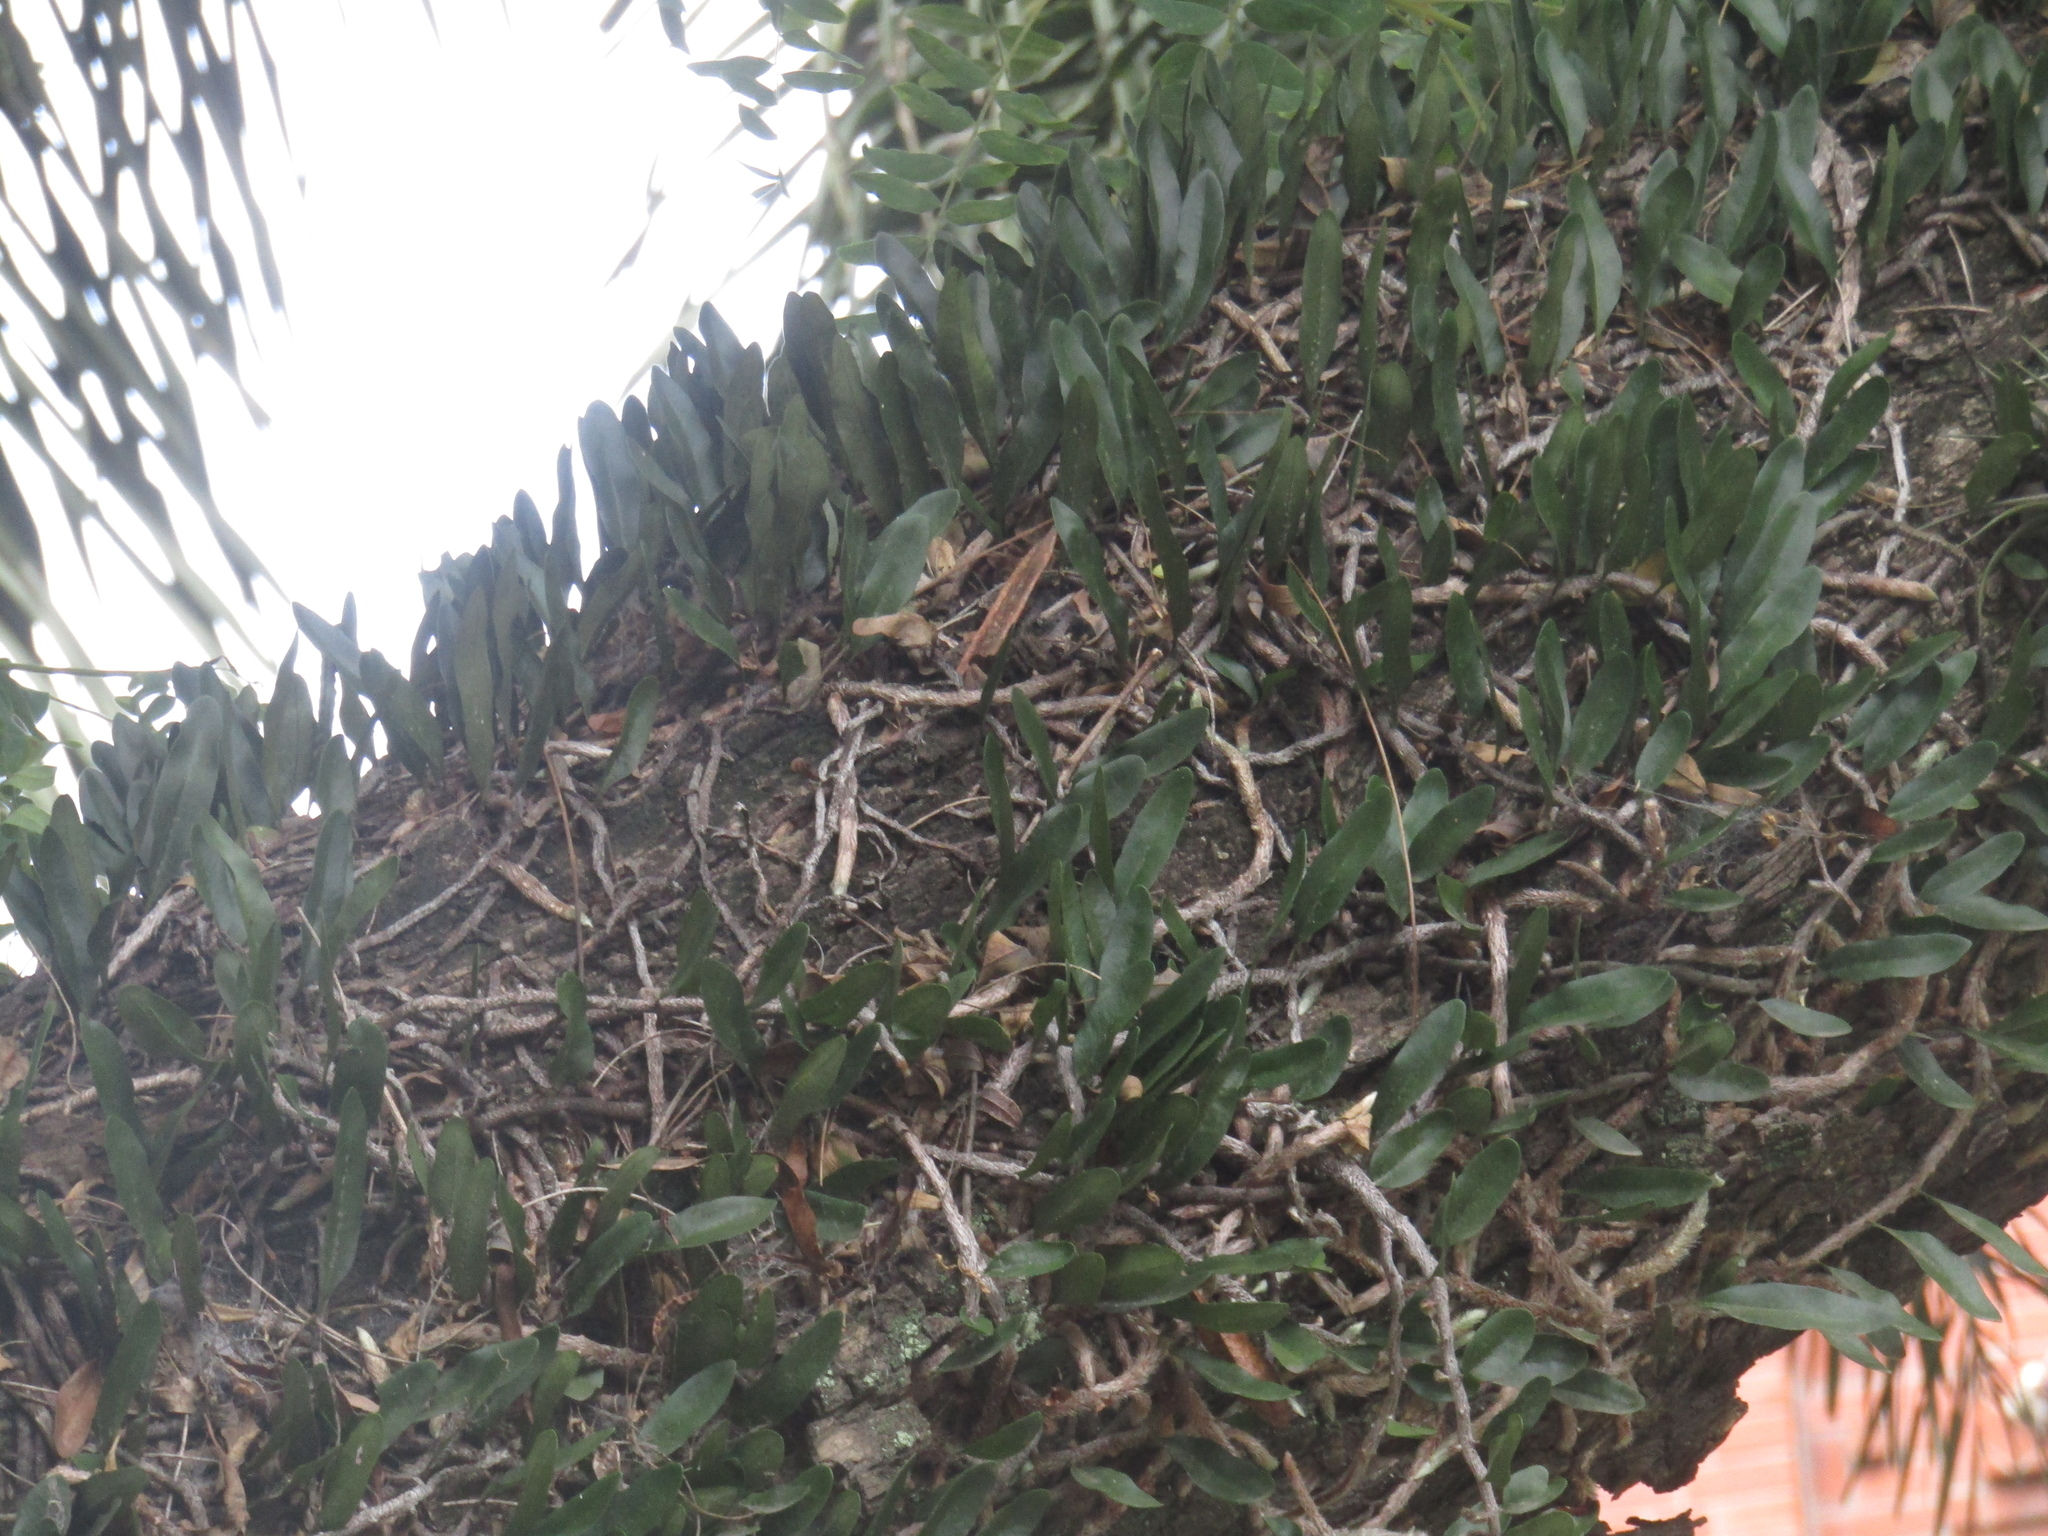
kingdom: Plantae
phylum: Tracheophyta
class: Polypodiopsida
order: Polypodiales
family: Polypodiaceae
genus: Microgramma
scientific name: Microgramma mortoniana
